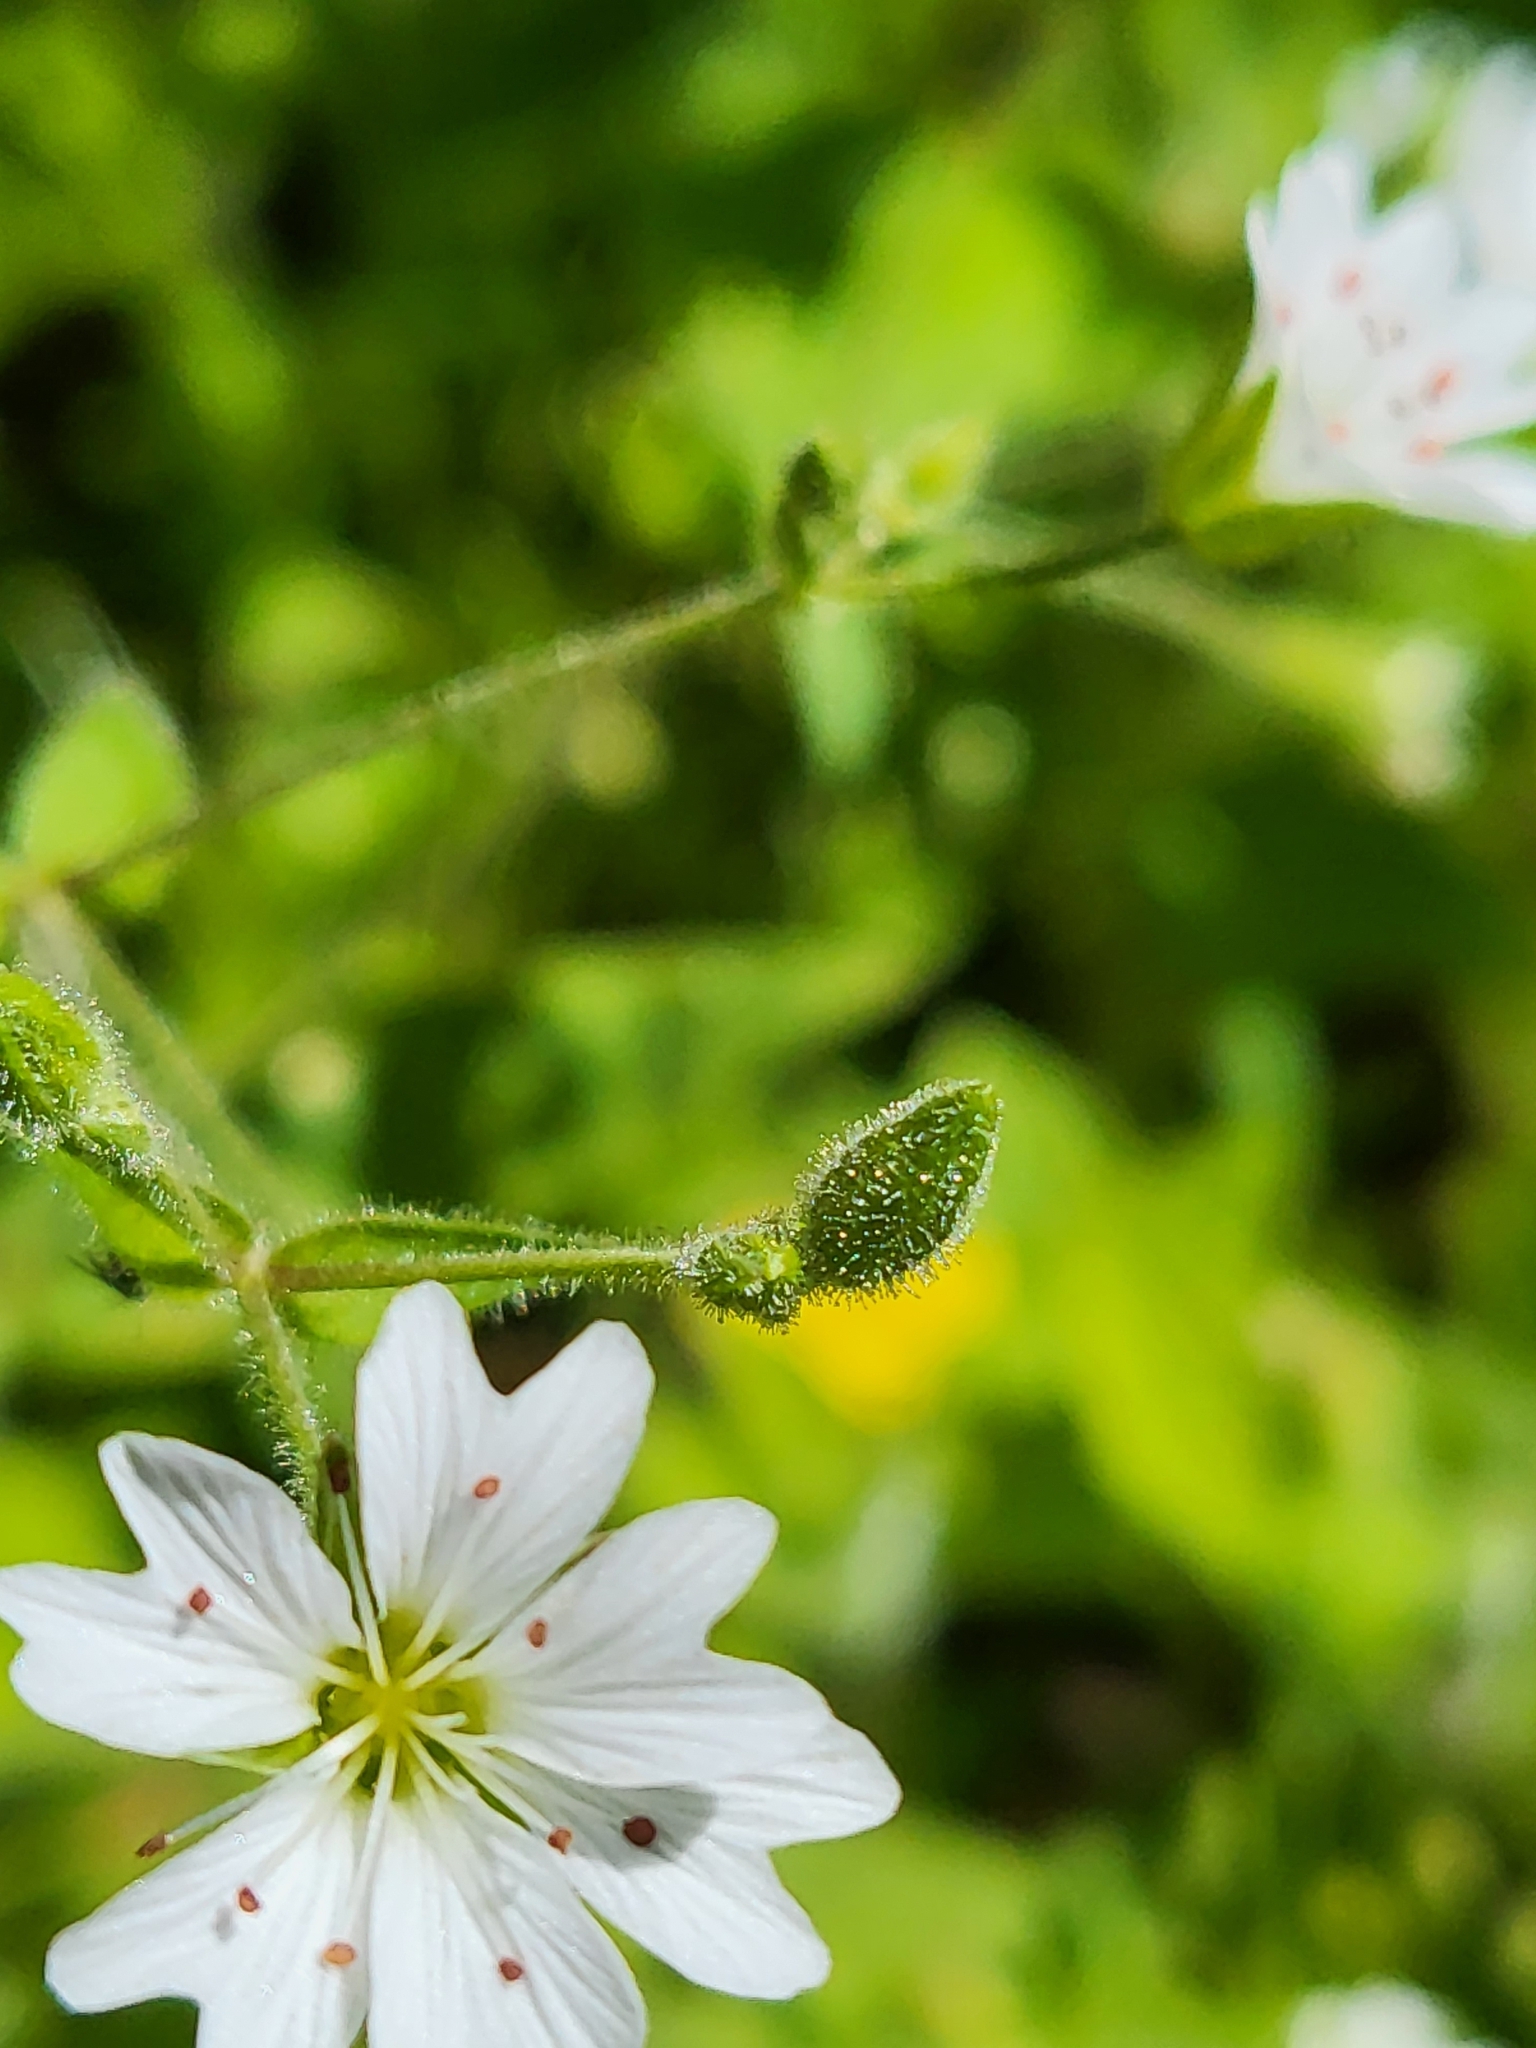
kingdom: Plantae
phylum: Tracheophyta
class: Magnoliopsida
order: Caryophyllales
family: Caryophyllaceae
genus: Schizotechium
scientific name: Schizotechium jamesianum
